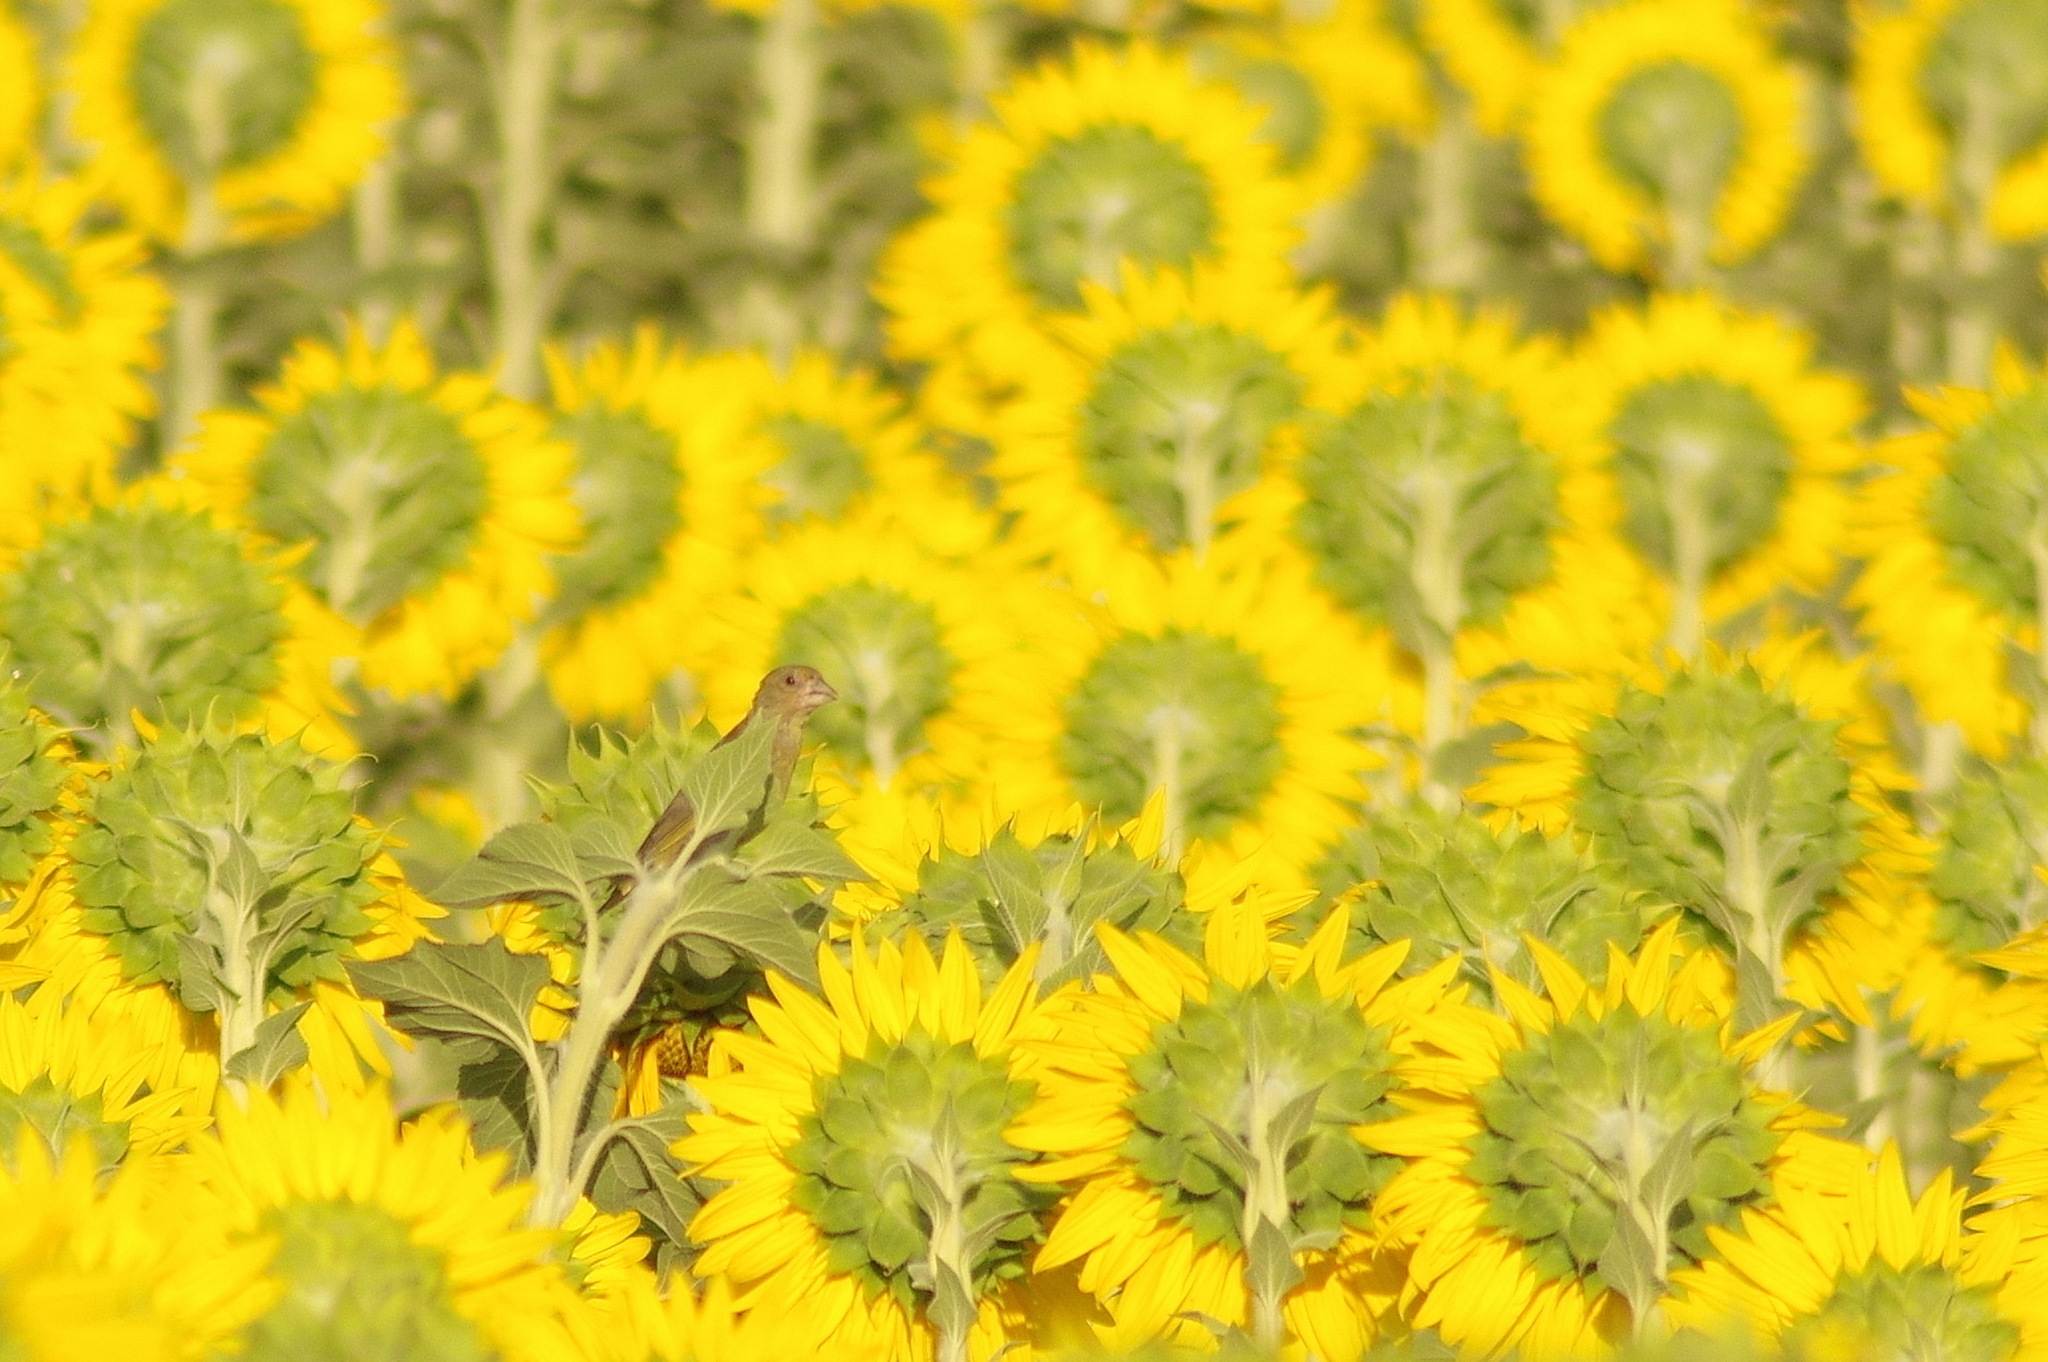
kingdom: Plantae
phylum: Tracheophyta
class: Liliopsida
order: Poales
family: Poaceae
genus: Chloris
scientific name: Chloris chloris
